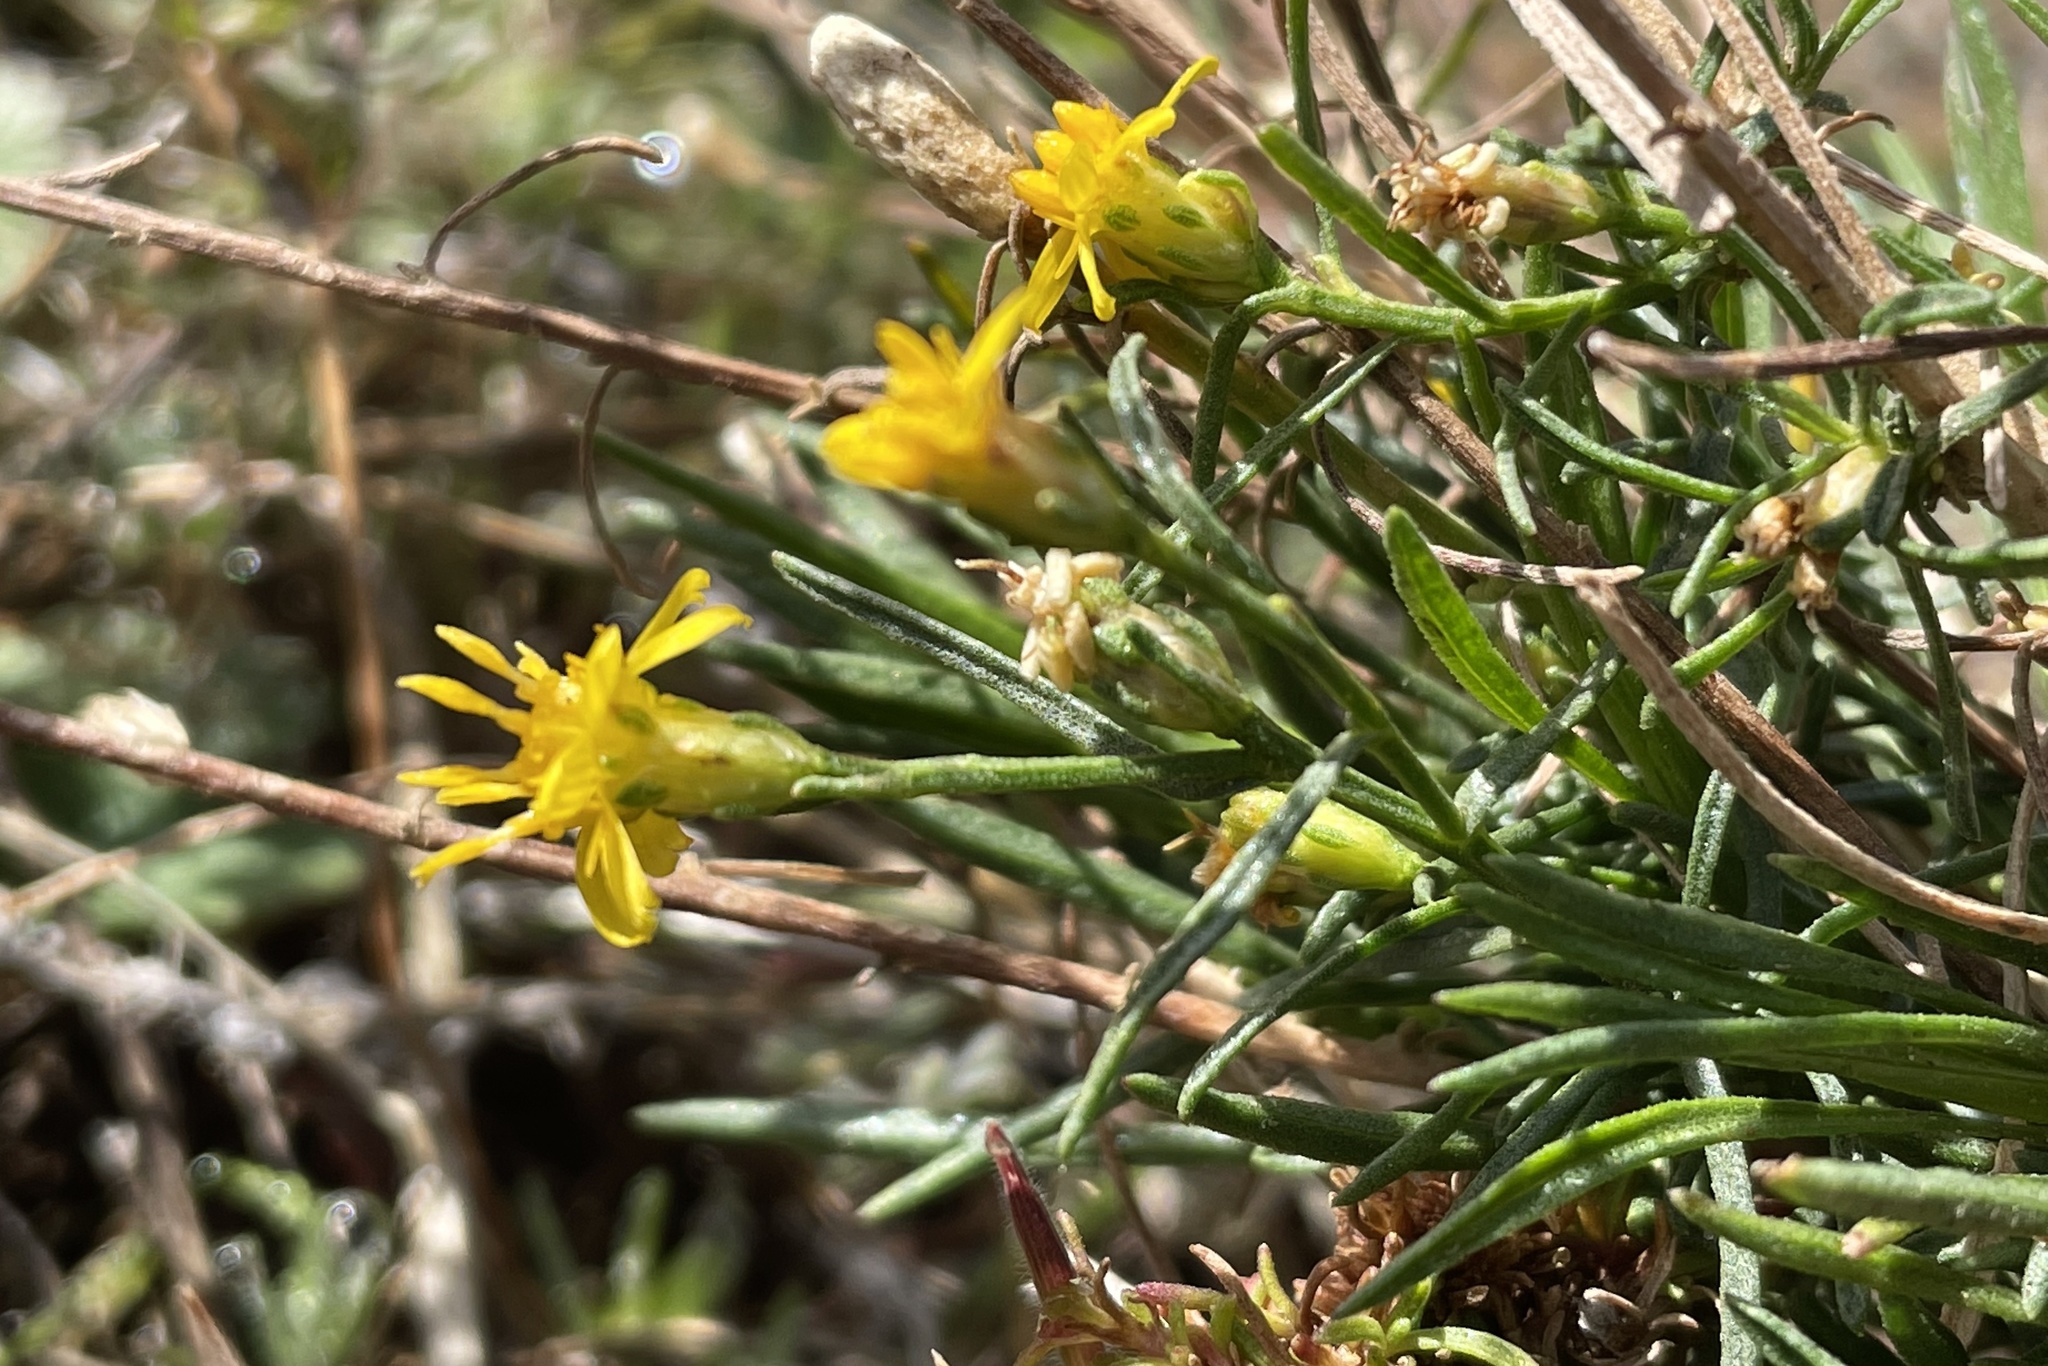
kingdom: Plantae
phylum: Tracheophyta
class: Magnoliopsida
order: Asterales
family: Asteraceae
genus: Gutierrezia
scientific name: Gutierrezia sarothrae
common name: Broom snakeweed
